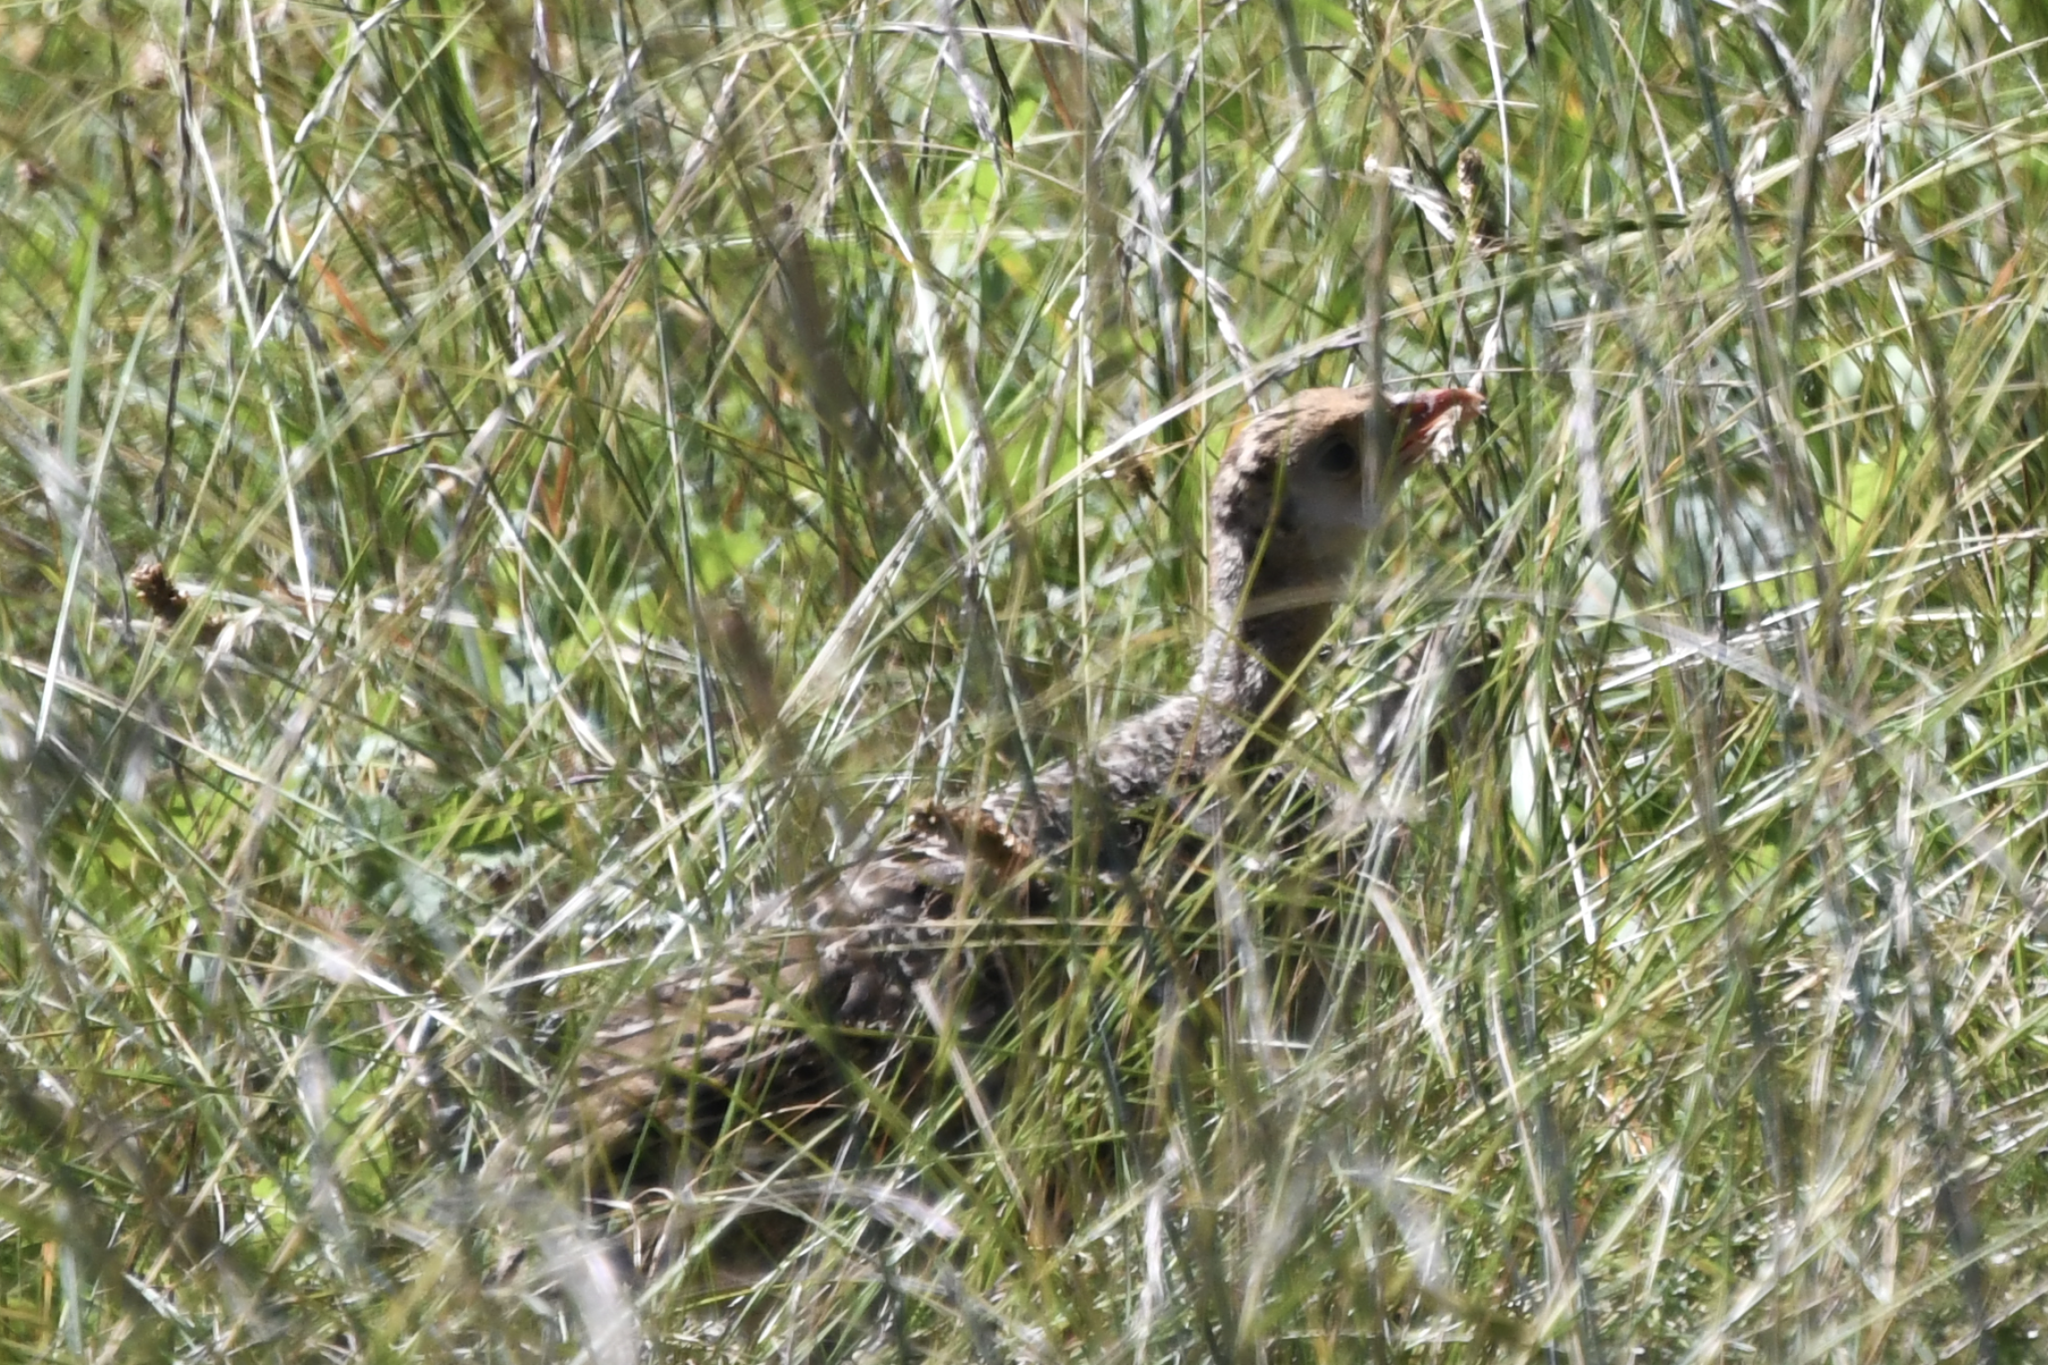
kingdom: Animalia
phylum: Chordata
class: Aves
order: Galliformes
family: Phasianidae
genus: Meleagris
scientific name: Meleagris gallopavo
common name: Wild turkey
